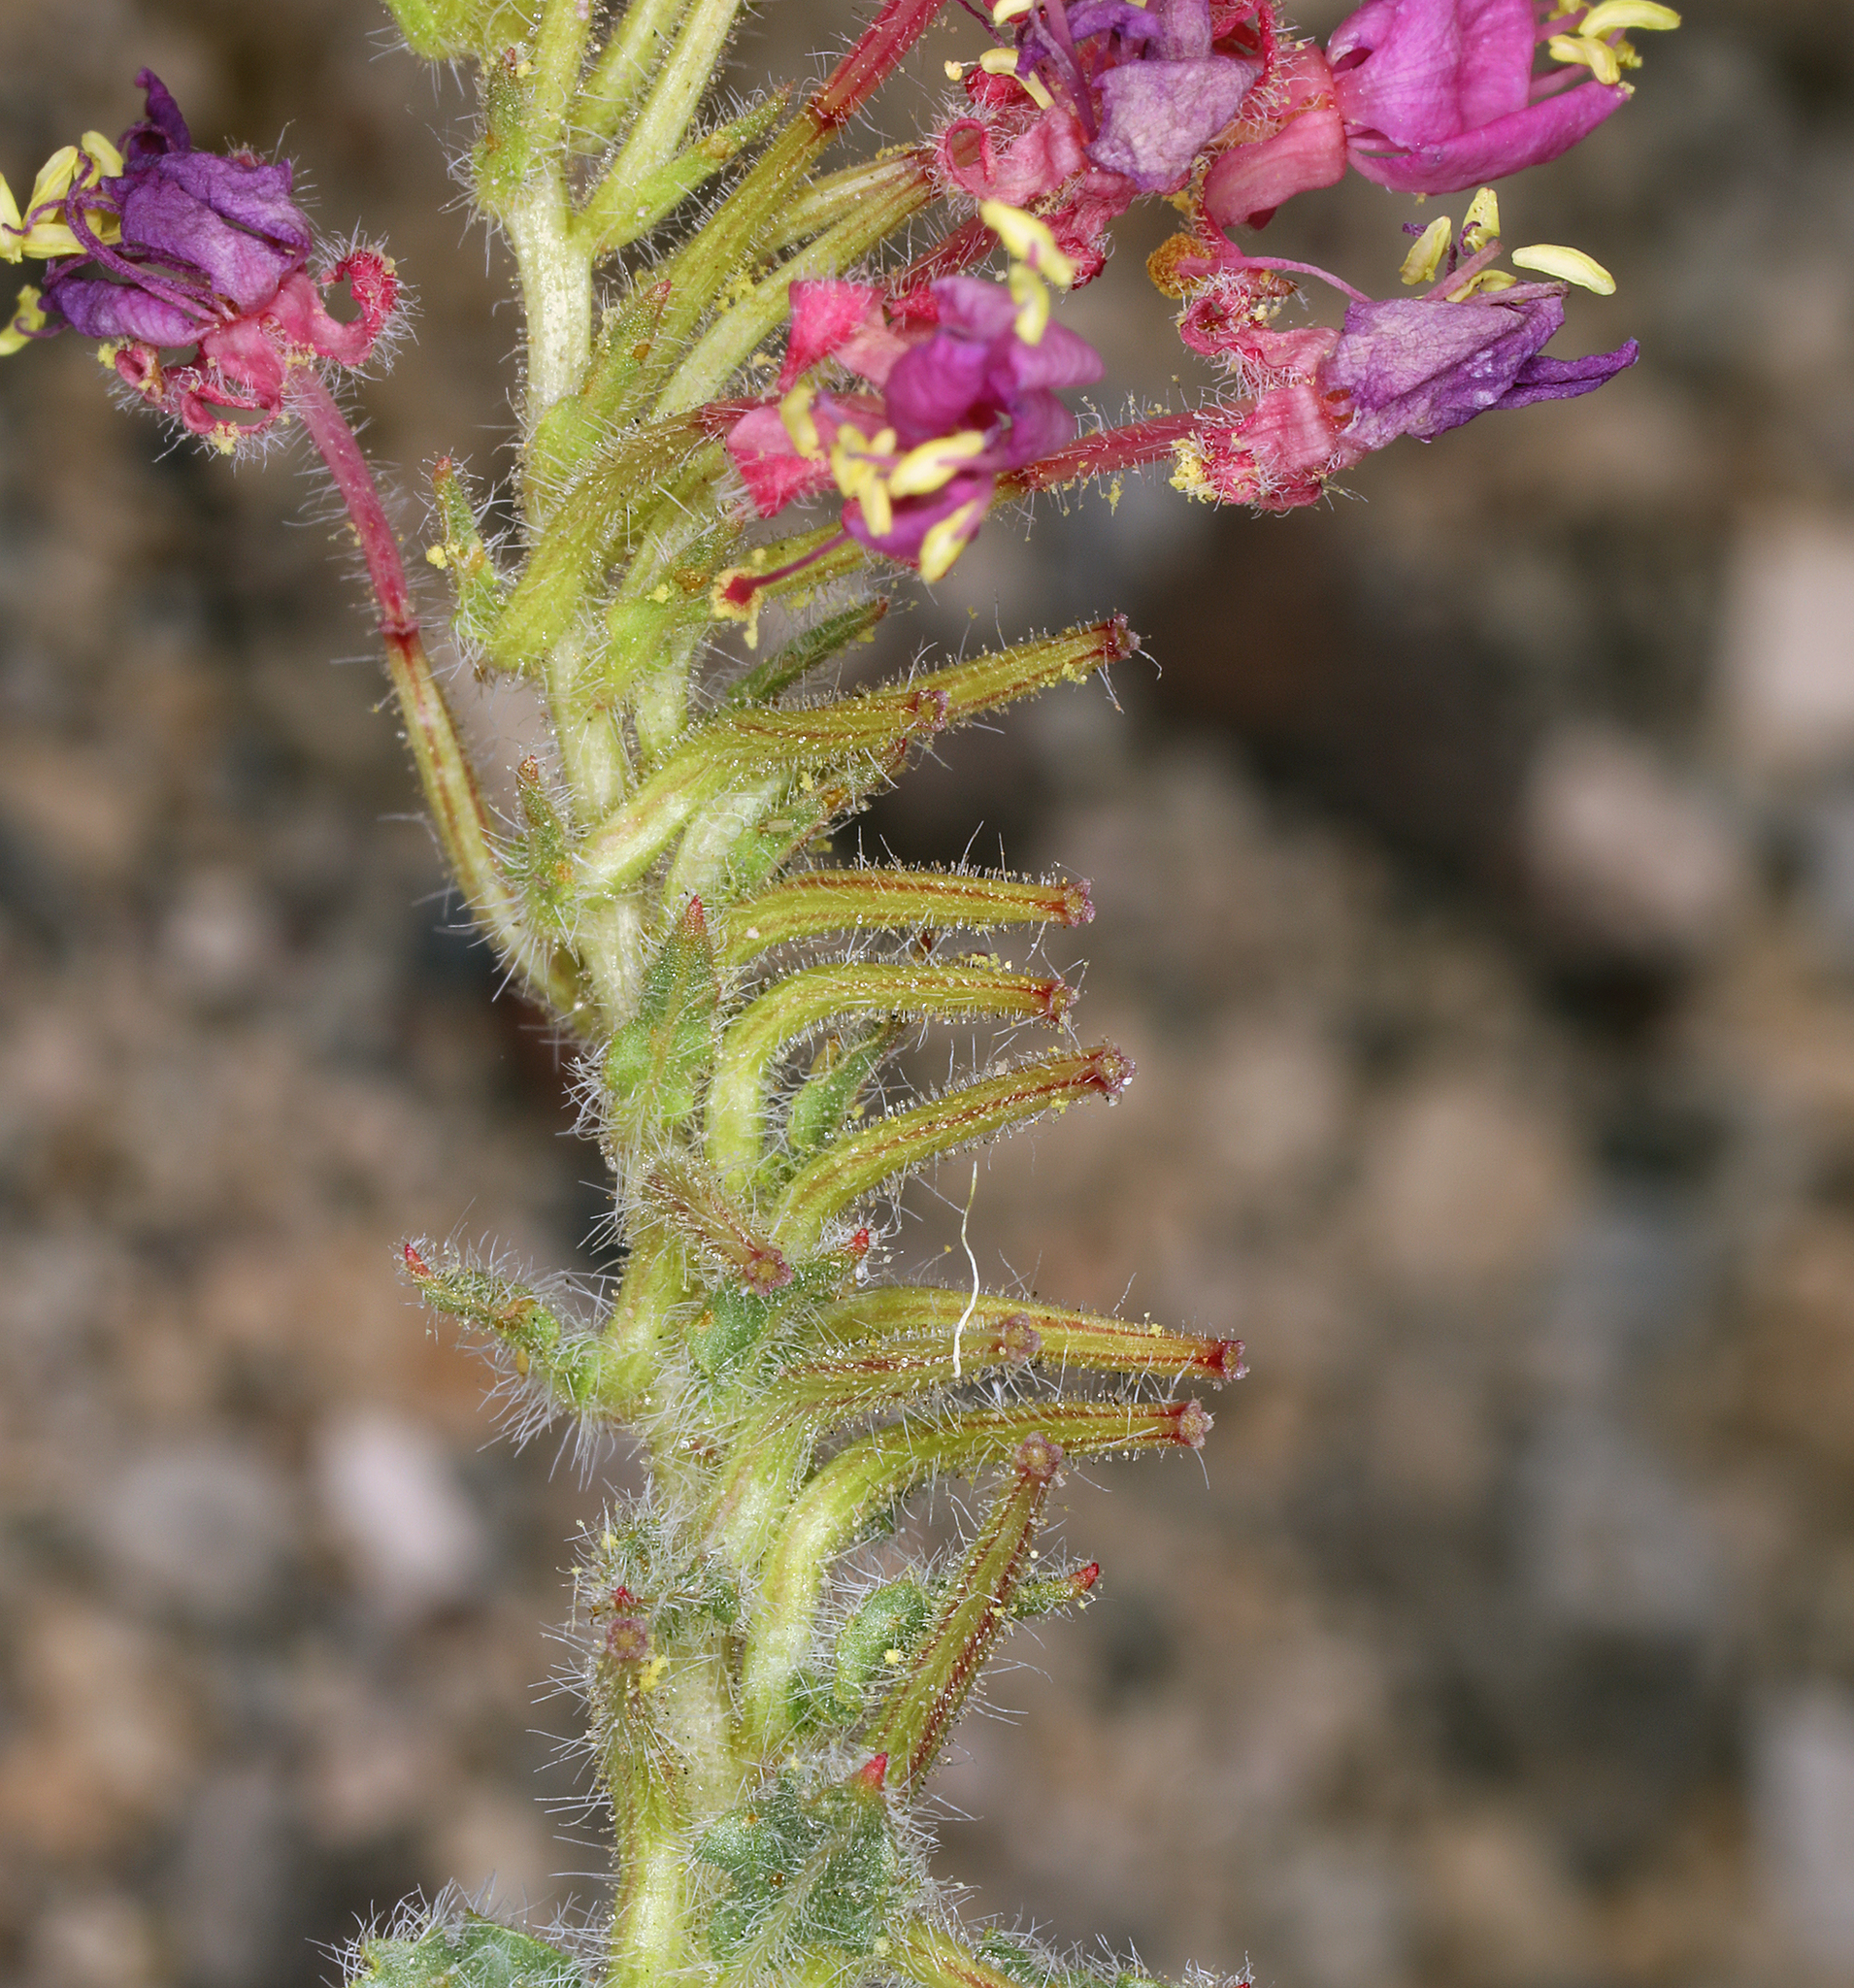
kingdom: Plantae
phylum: Tracheophyta
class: Magnoliopsida
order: Myrtales
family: Onagraceae
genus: Eremothera
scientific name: Eremothera boothii
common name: Booth's evening primrose
